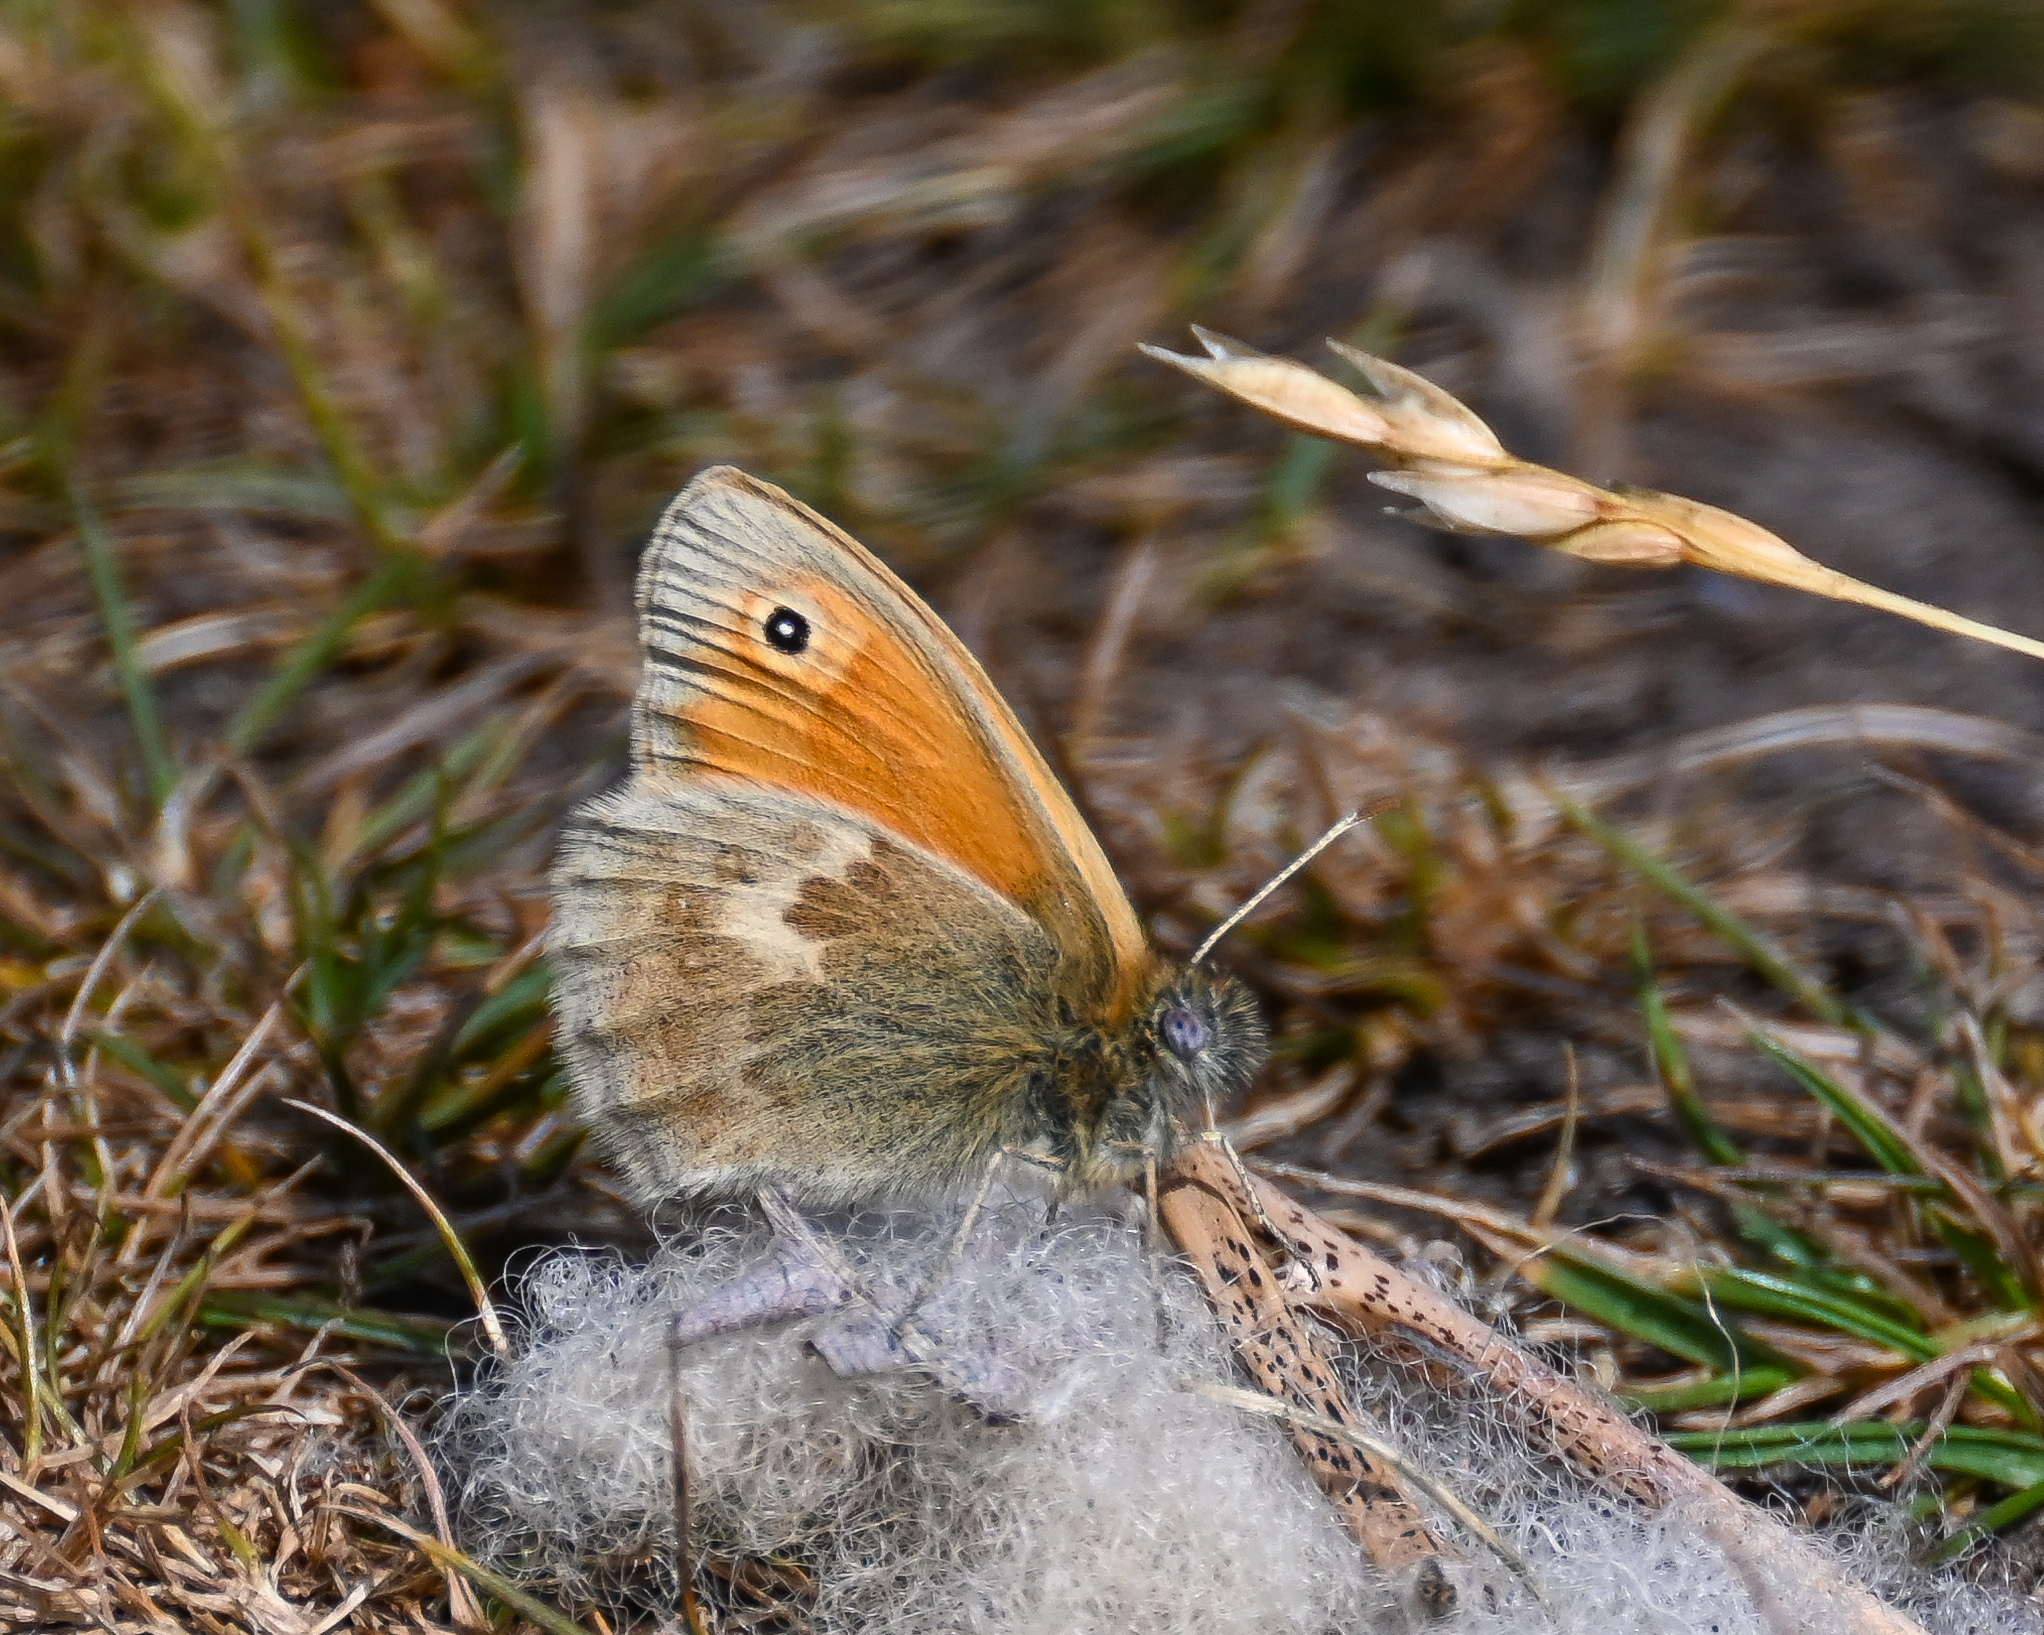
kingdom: Animalia
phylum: Arthropoda
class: Insecta
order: Lepidoptera
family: Nymphalidae
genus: Coenonympha
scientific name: Coenonympha pamphilus
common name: Small heath
